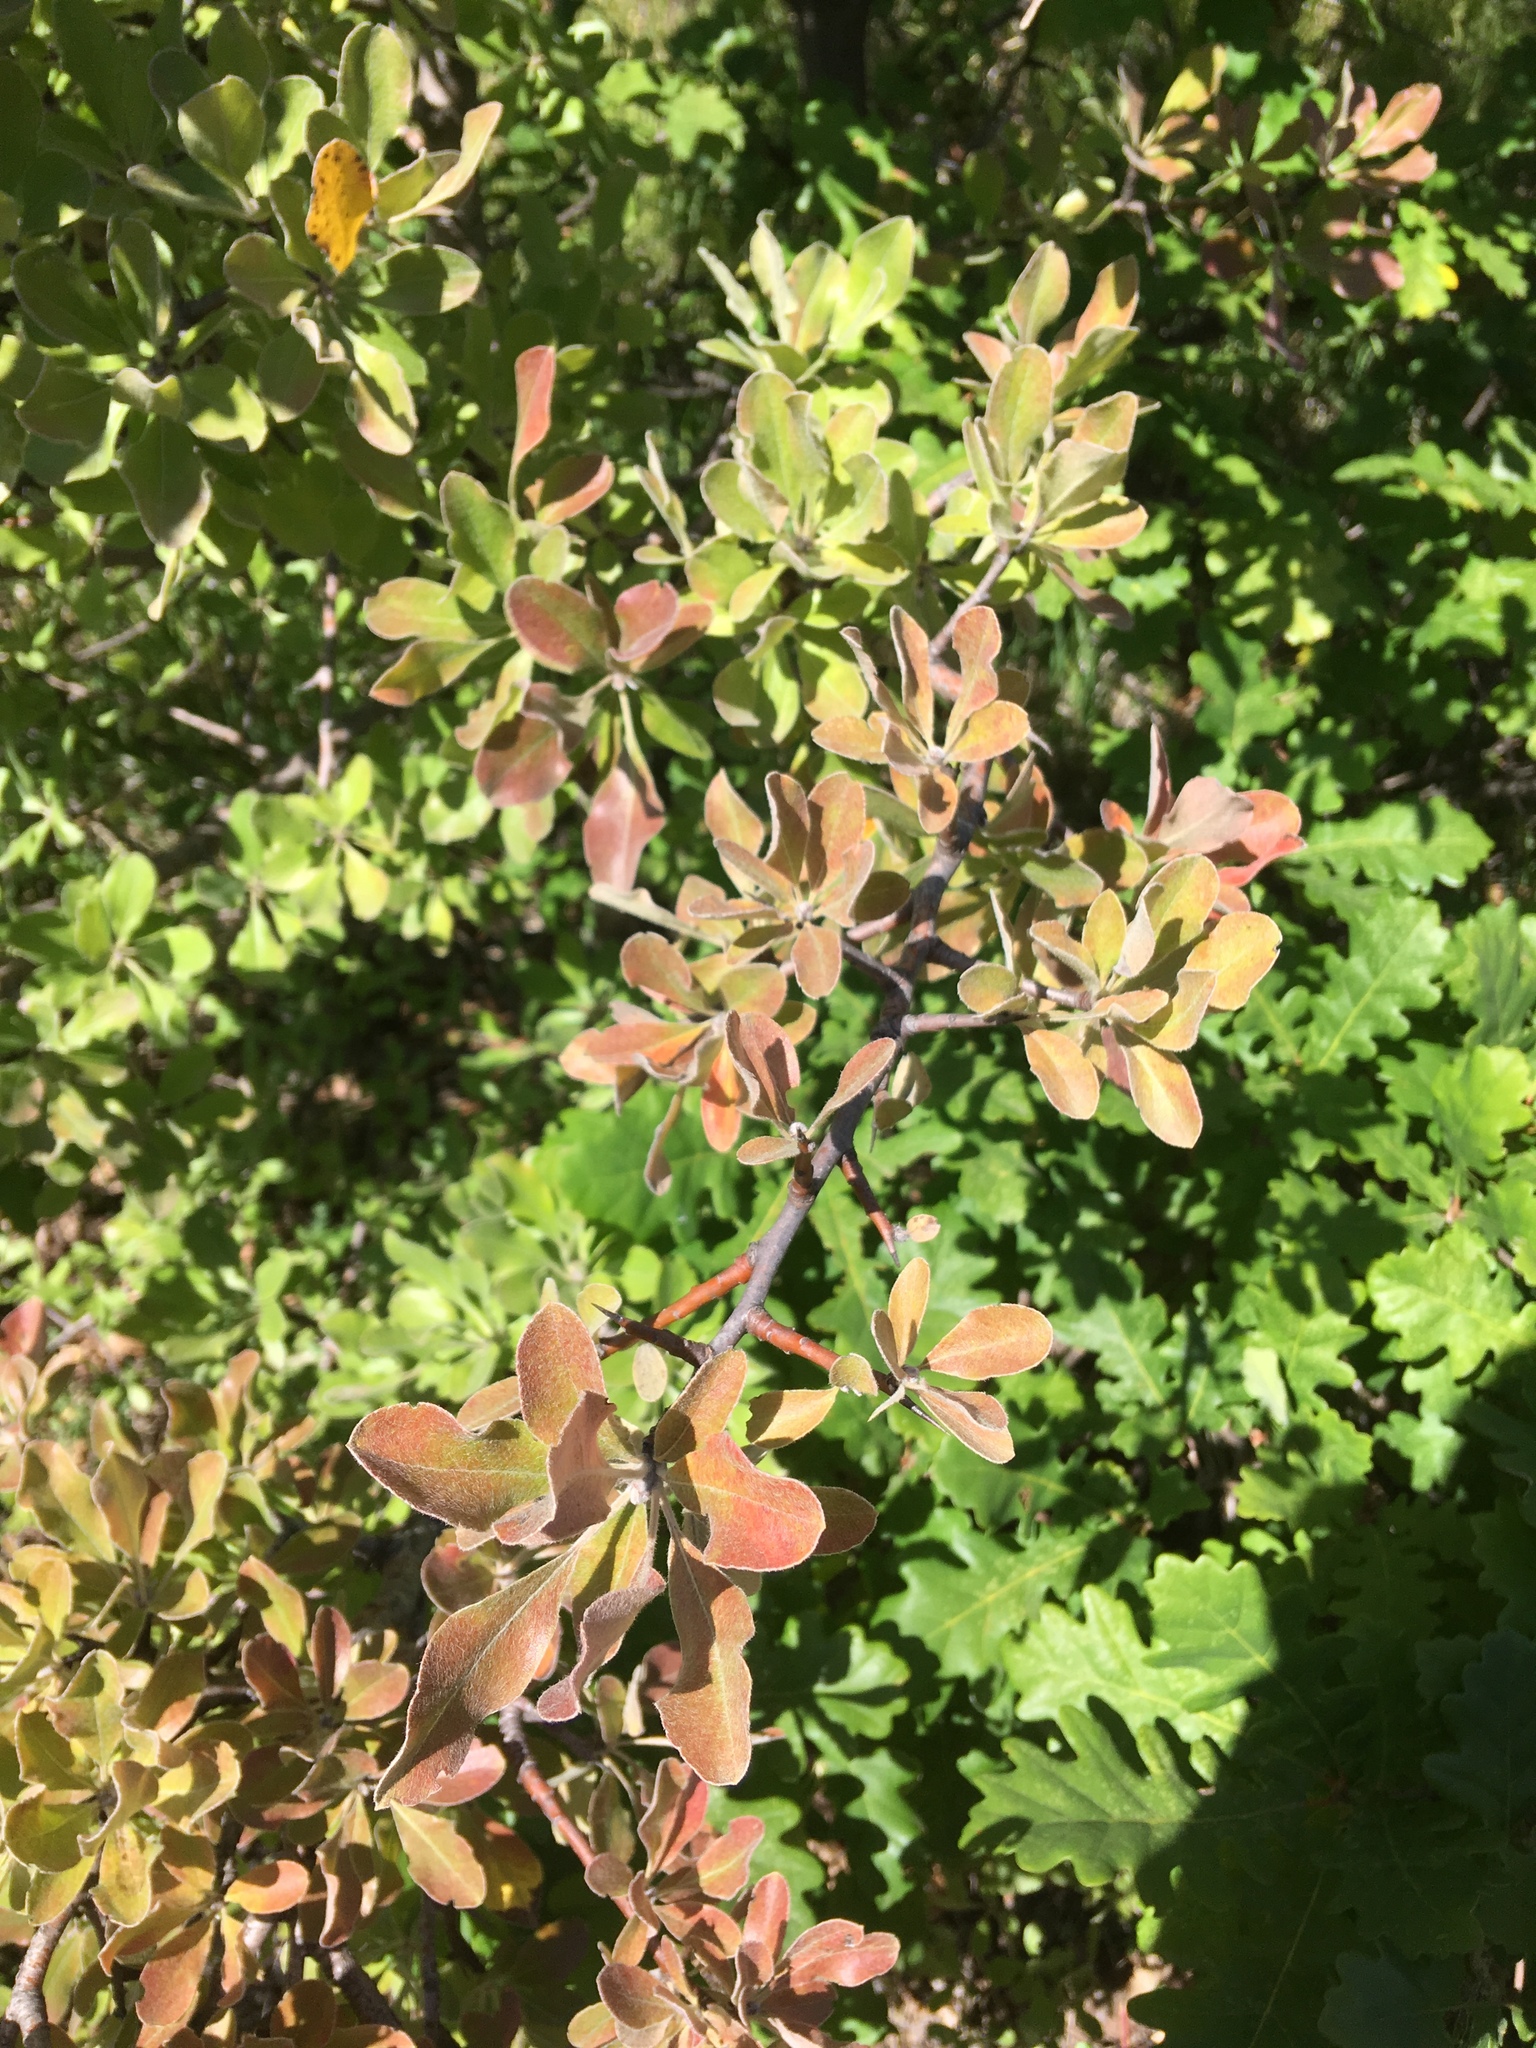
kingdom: Plantae
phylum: Tracheophyta
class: Magnoliopsida
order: Rosales
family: Rosaceae
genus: Pyrus
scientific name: Pyrus elaeagrifolia
